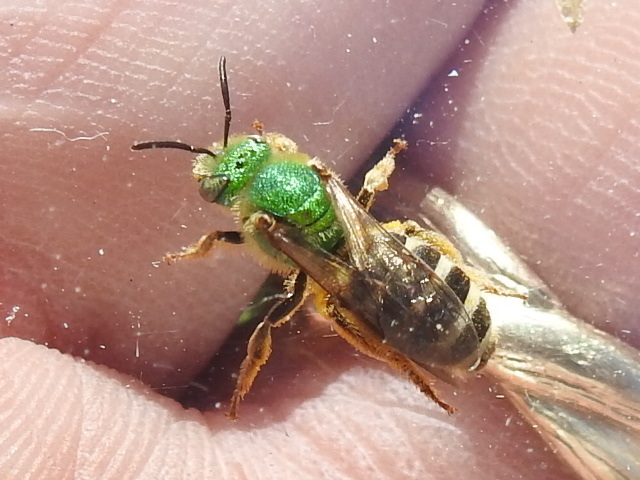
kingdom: Animalia
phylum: Arthropoda
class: Insecta
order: Hymenoptera
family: Halictidae
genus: Agapostemon
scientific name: Agapostemon virescens
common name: Bicolored striped sweat bee
